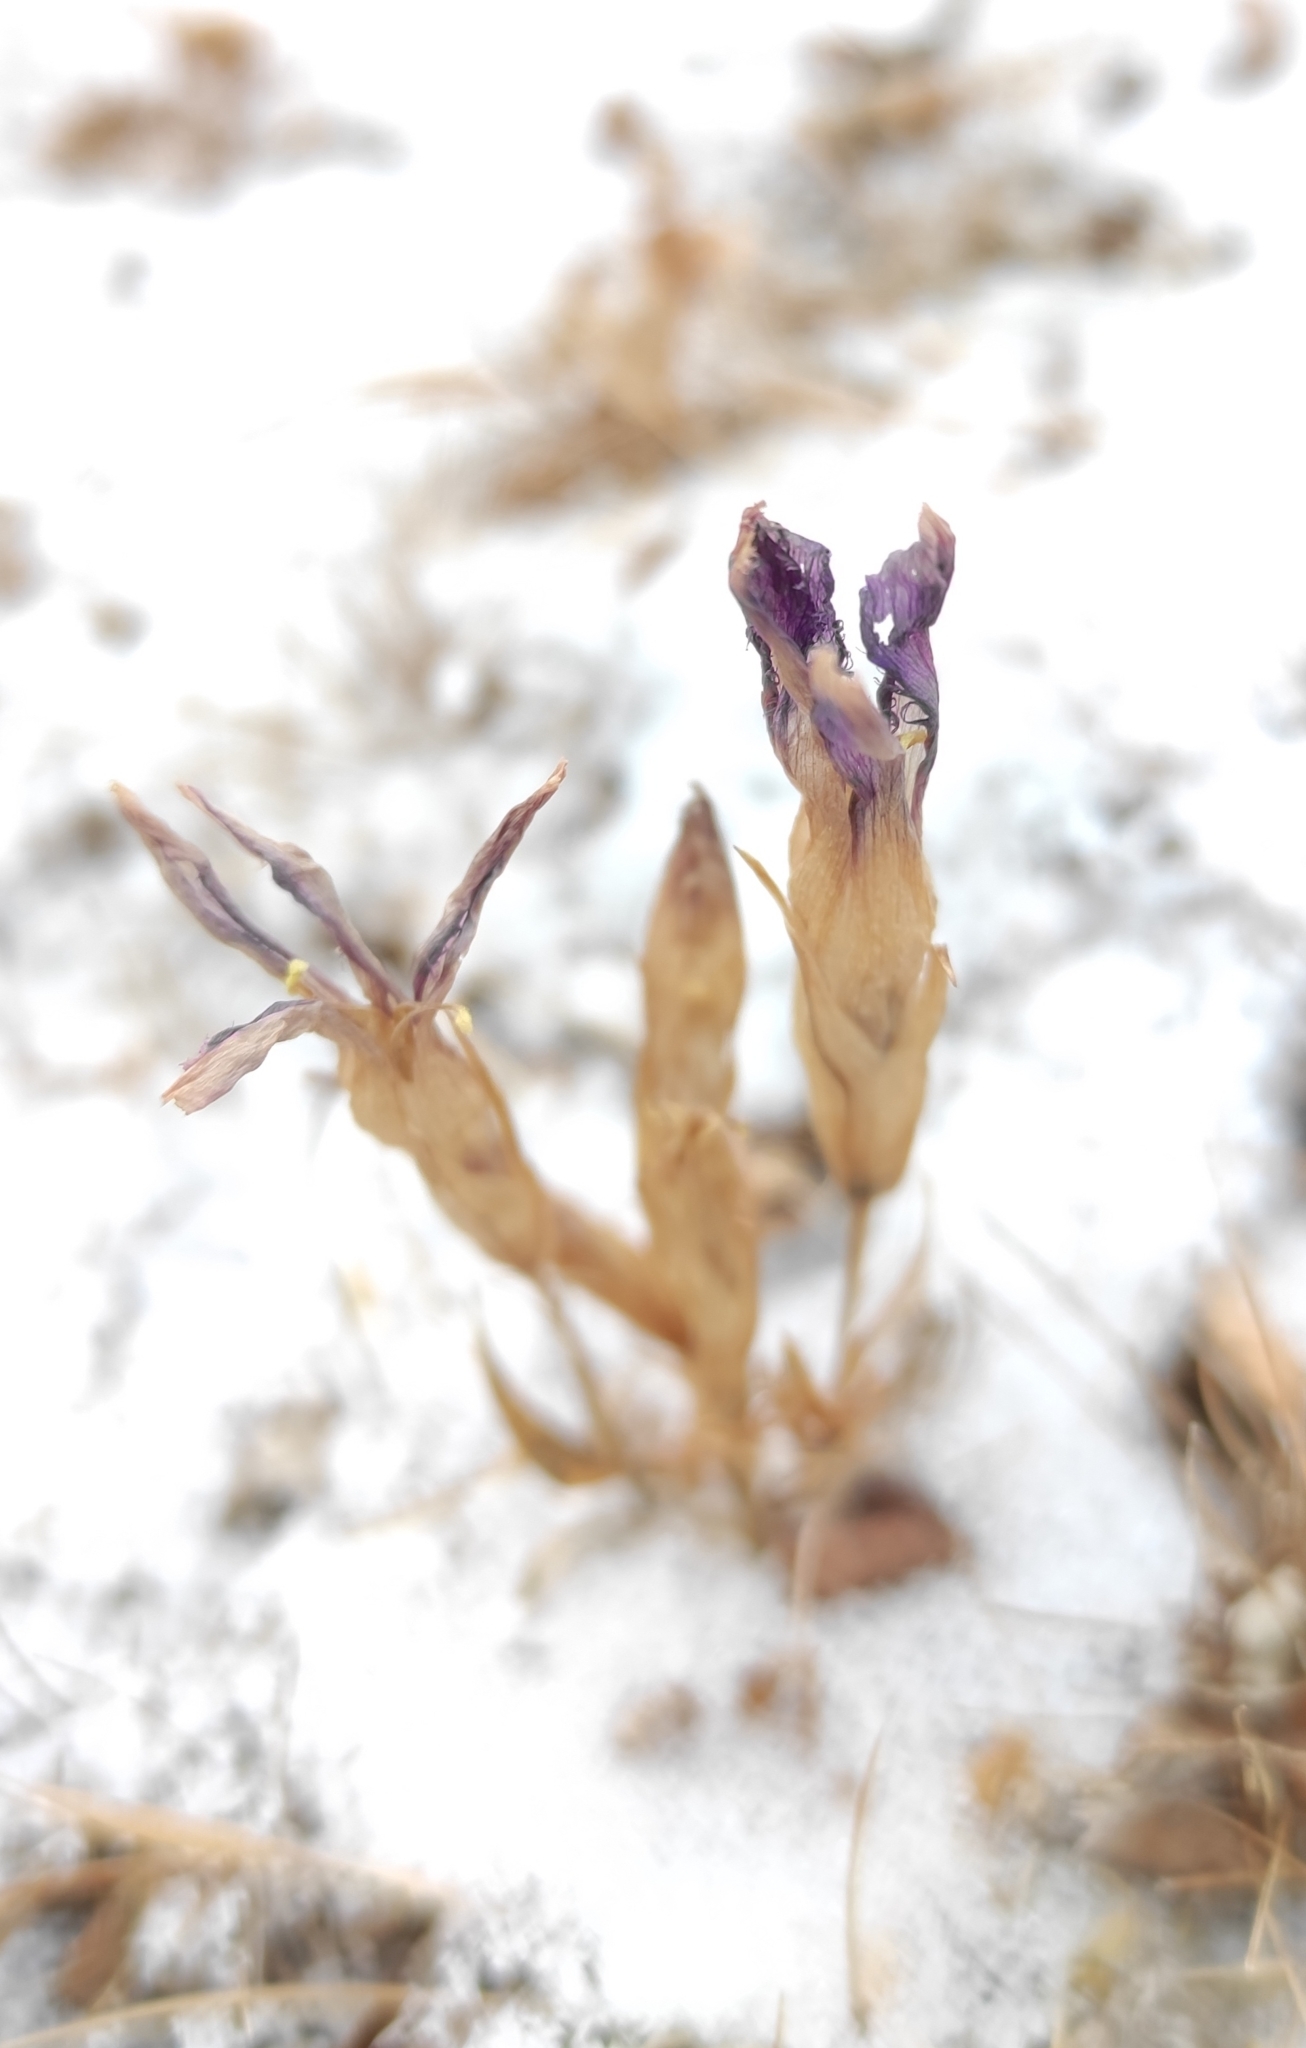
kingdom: Plantae
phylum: Tracheophyta
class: Magnoliopsida
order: Gentianales
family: Gentianaceae
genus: Gentianopsis
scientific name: Gentianopsis barbata
